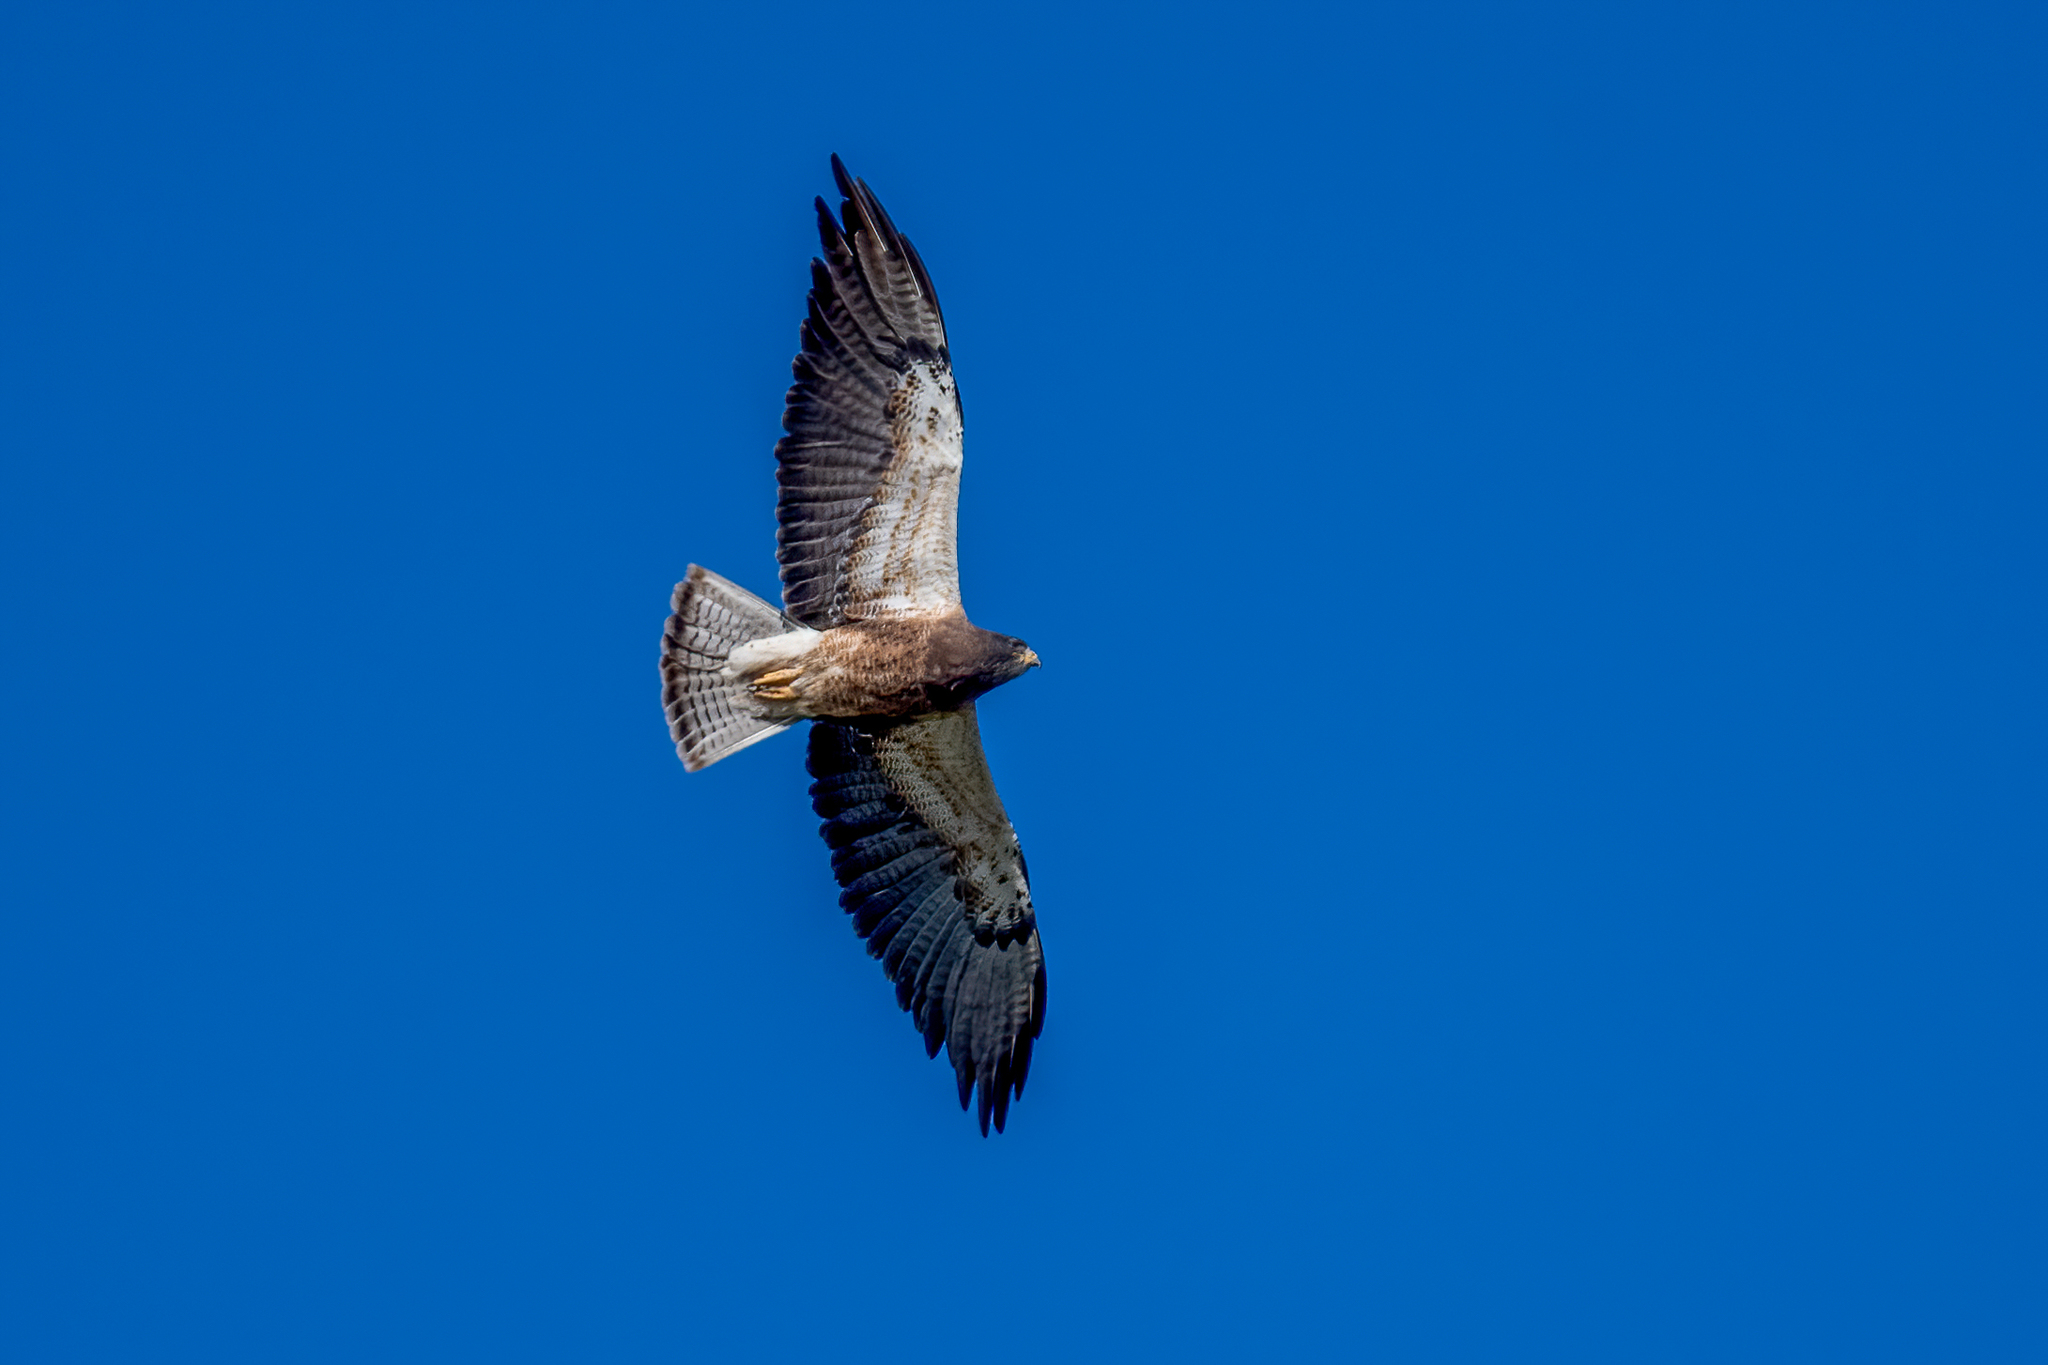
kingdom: Animalia
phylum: Chordata
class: Aves
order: Accipitriformes
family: Accipitridae
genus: Buteo
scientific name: Buteo swainsoni
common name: Swainson's hawk
